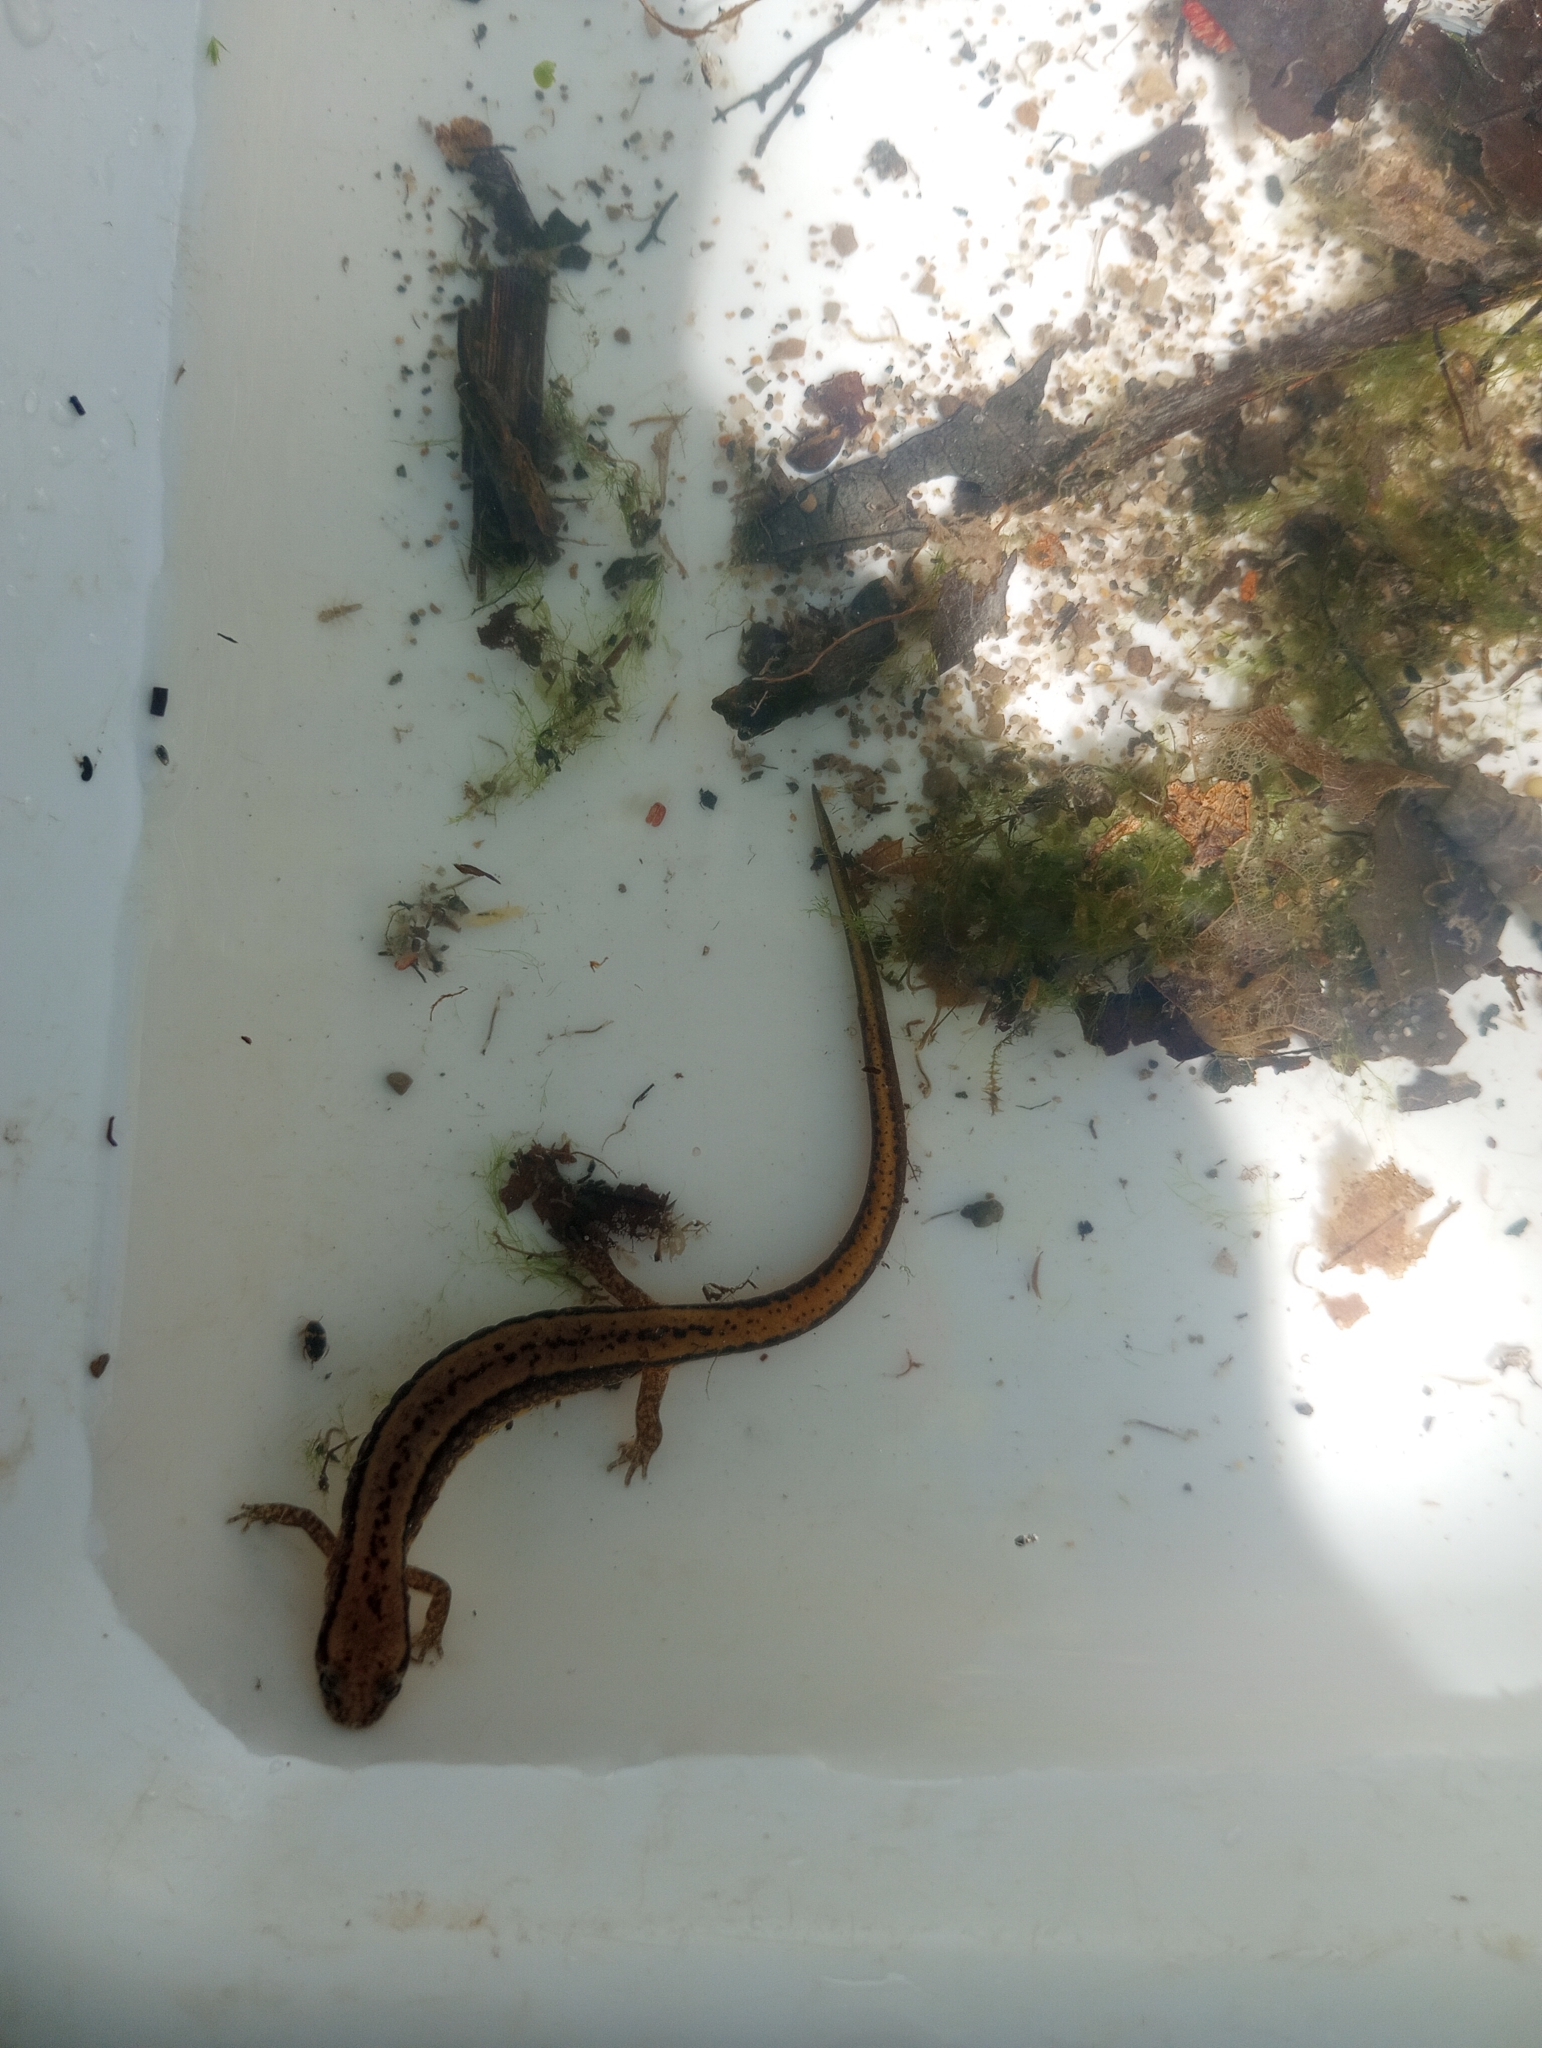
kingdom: Animalia
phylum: Chordata
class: Amphibia
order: Caudata
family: Plethodontidae
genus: Eurycea
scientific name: Eurycea cirrigera
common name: Southern two-lined salamander
